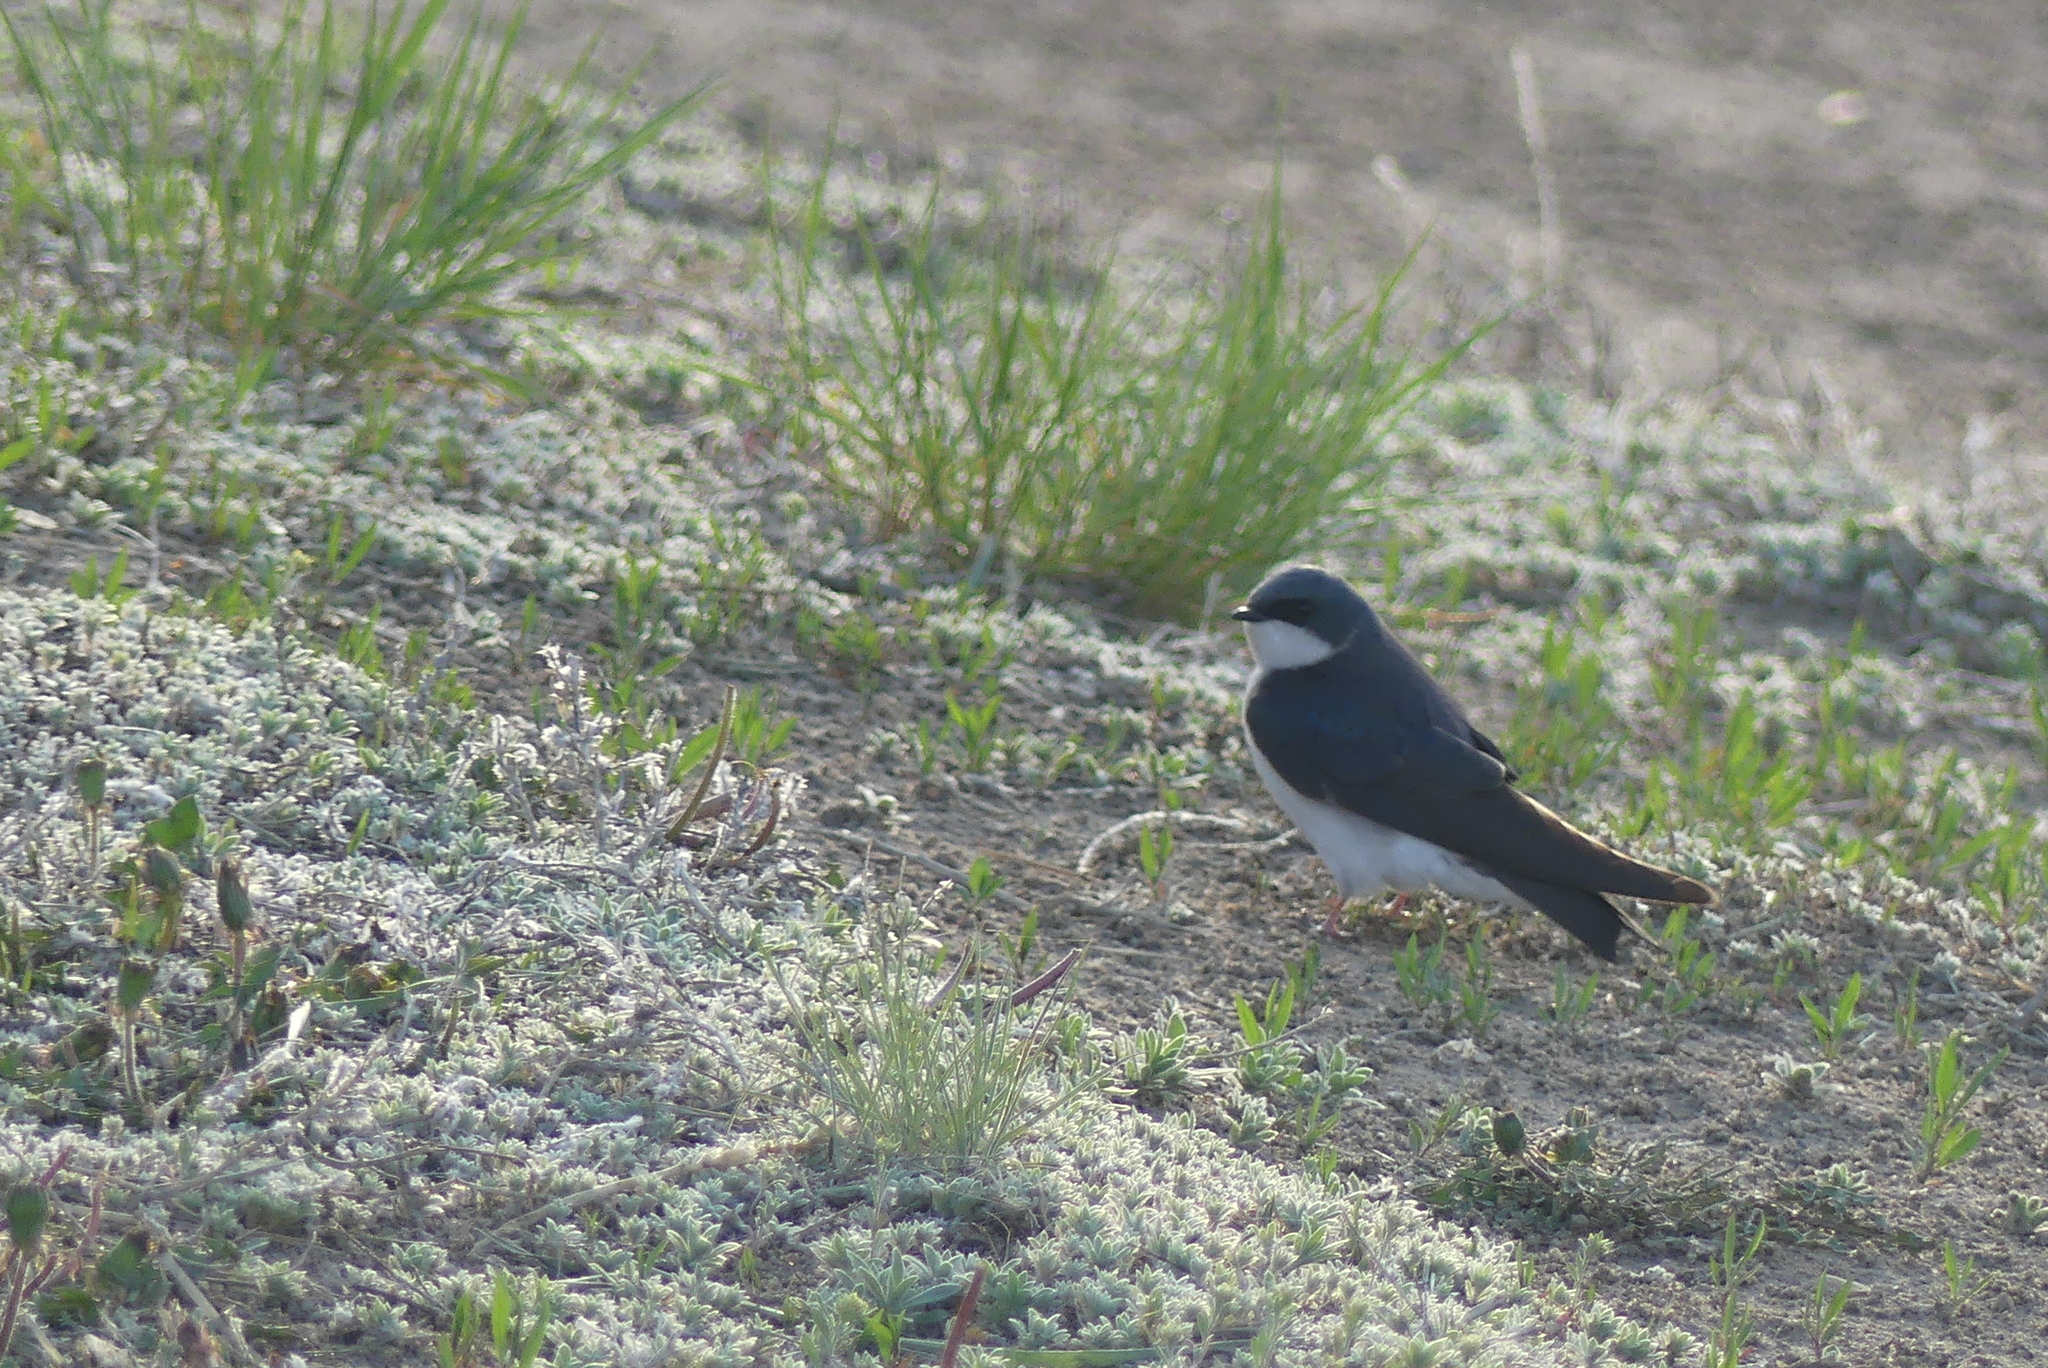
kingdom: Animalia
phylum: Chordata
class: Aves
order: Passeriformes
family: Hirundinidae
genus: Tachycineta
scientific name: Tachycineta bicolor
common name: Tree swallow
